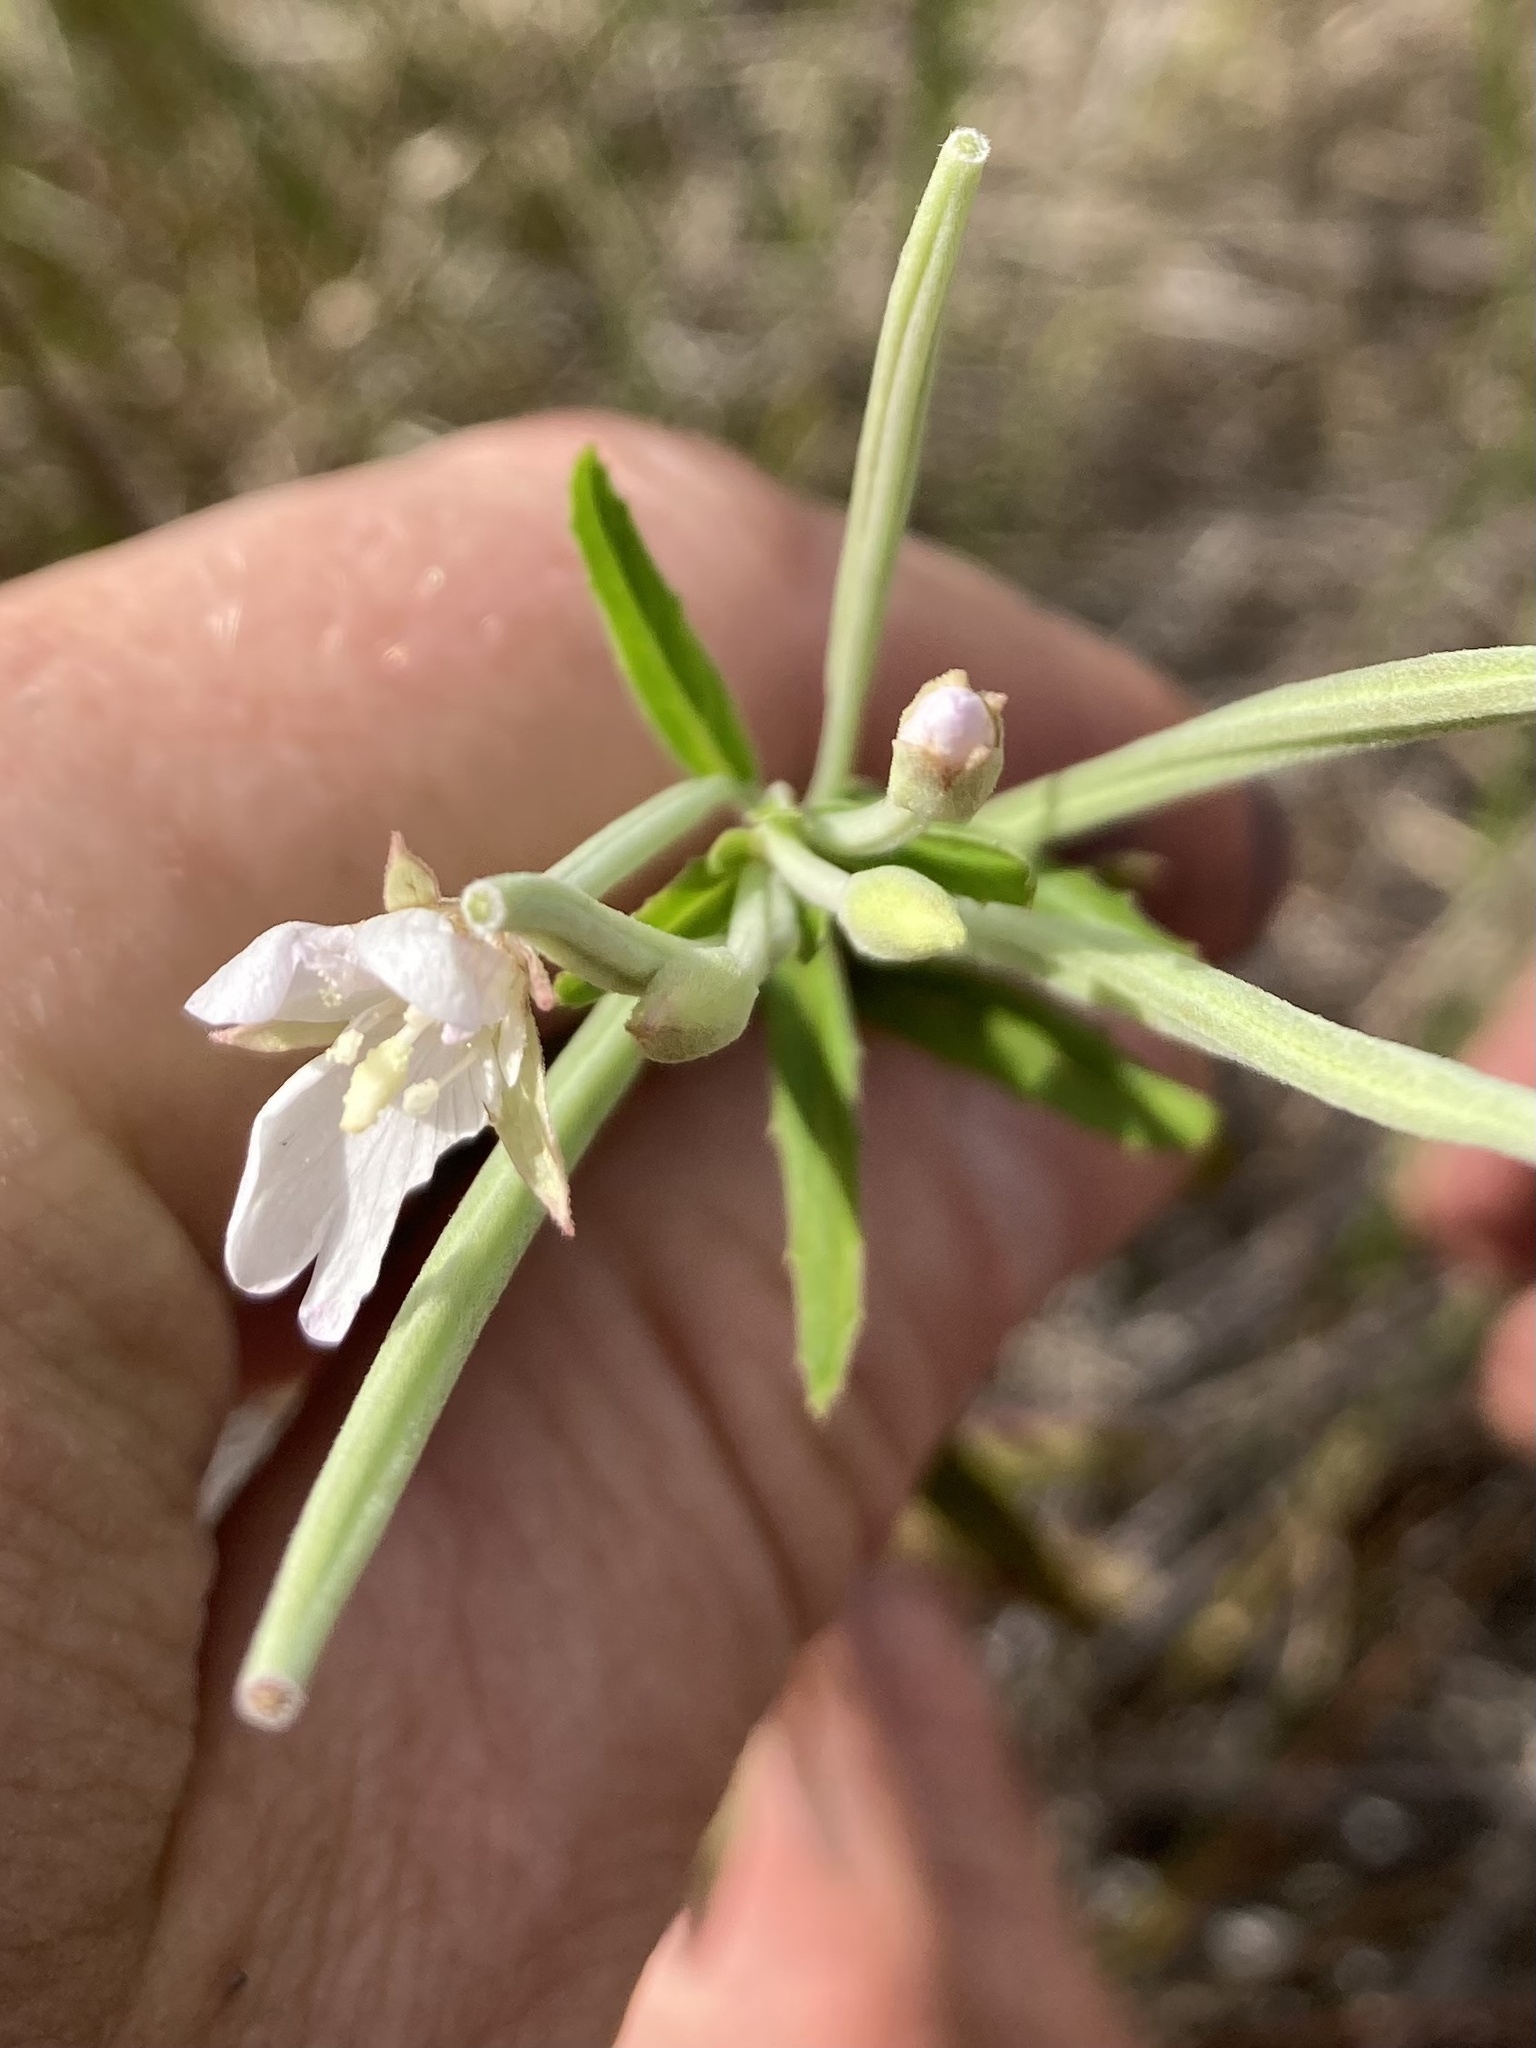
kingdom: Plantae
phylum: Tracheophyta
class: Magnoliopsida
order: Myrtales
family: Onagraceae
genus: Epilobium
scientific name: Epilobium pallidiflorum
